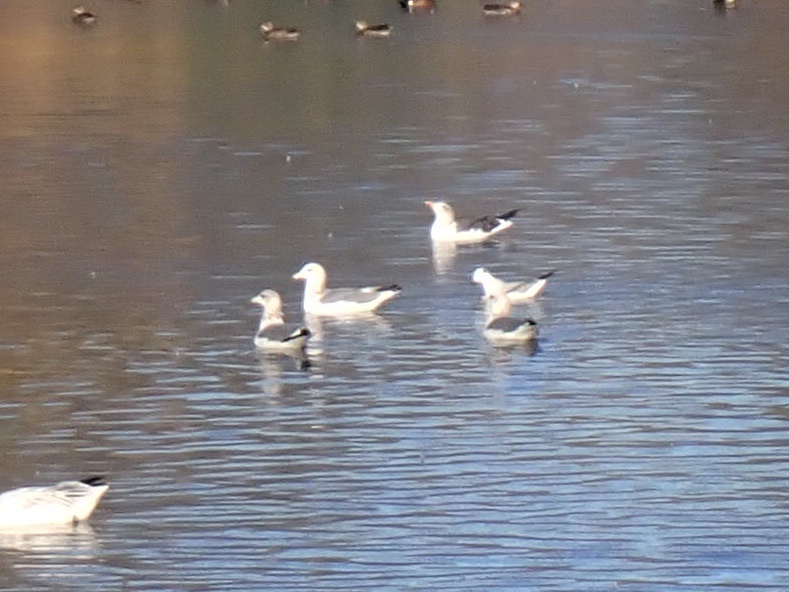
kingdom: Animalia
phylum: Chordata
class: Aves
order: Charadriiformes
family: Laridae
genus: Larus
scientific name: Larus californicus
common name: California gull
